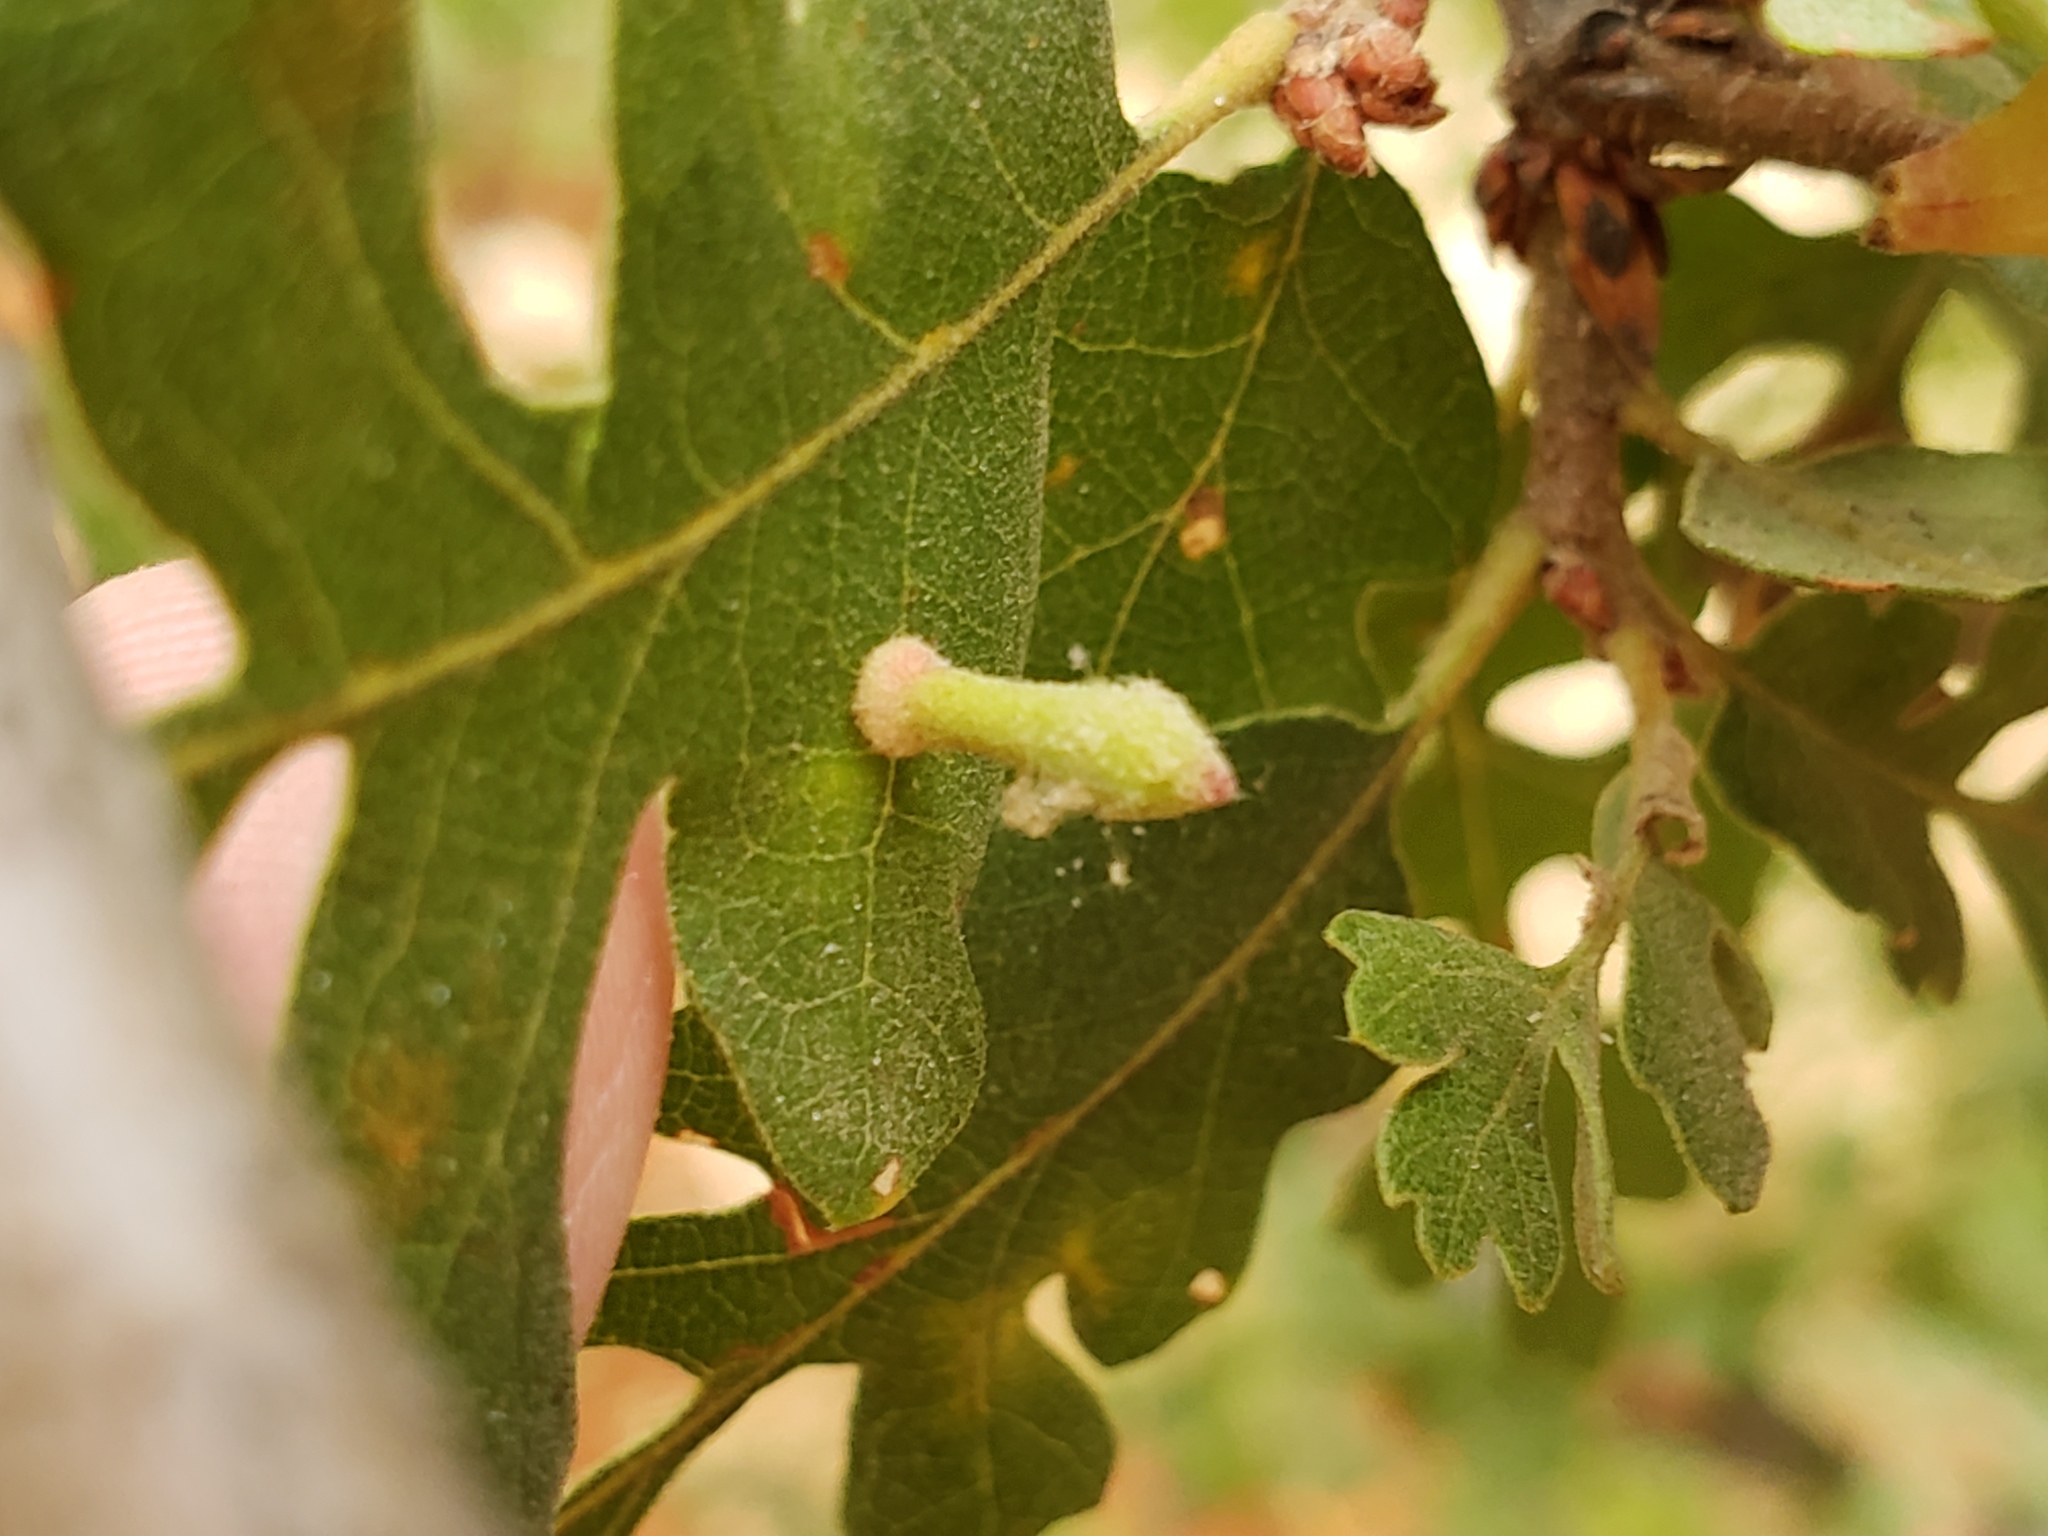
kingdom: Animalia
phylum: Arthropoda
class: Insecta
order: Hymenoptera
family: Cynipidae
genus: Atrusca
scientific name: Atrusca
